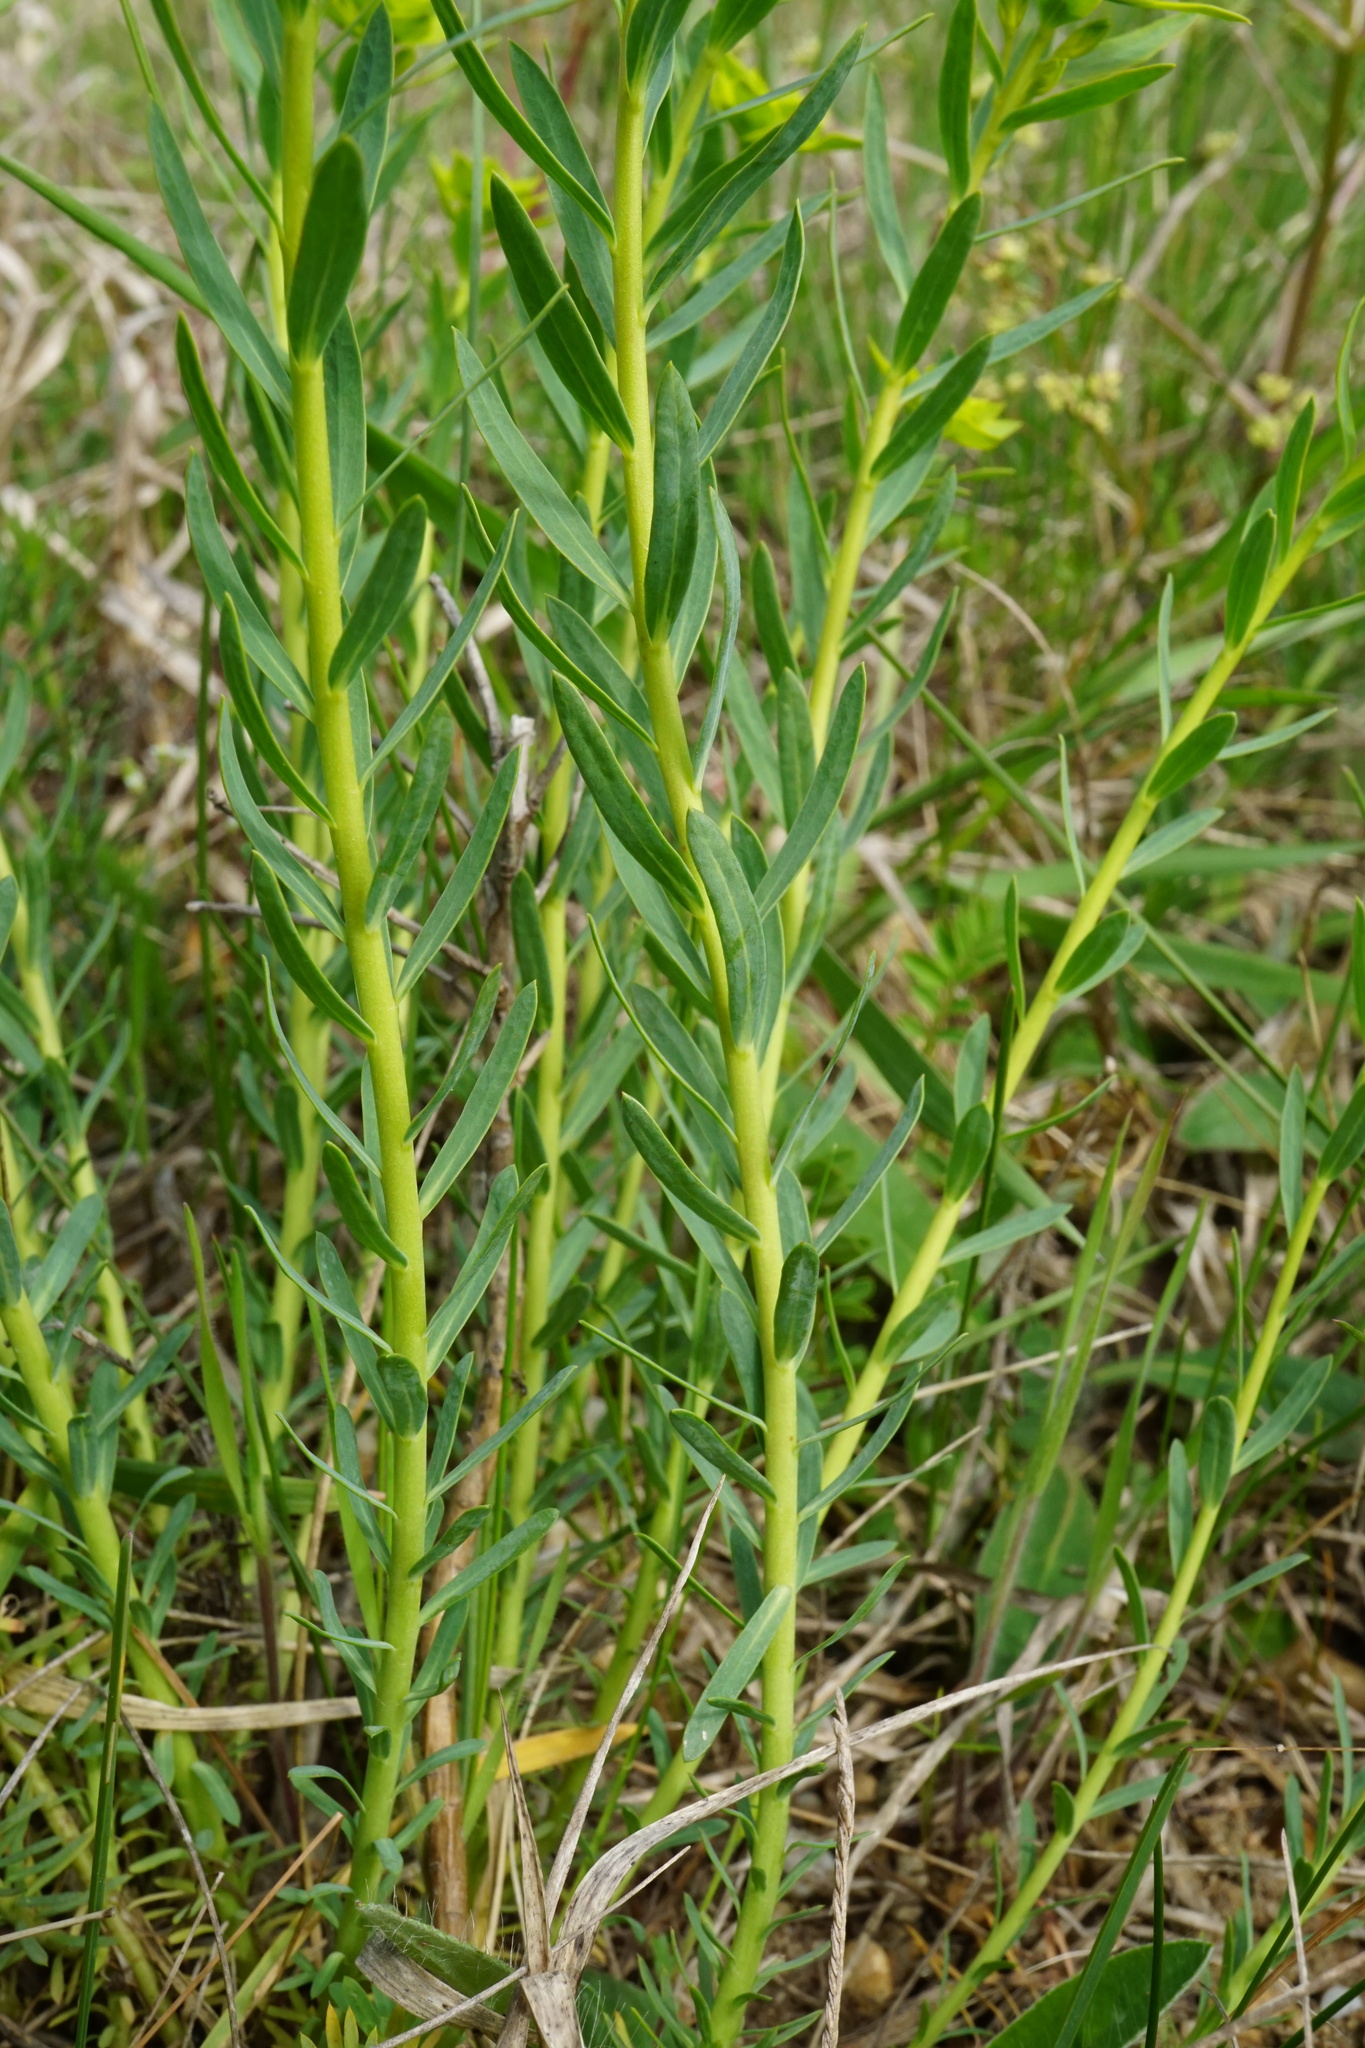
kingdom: Plantae
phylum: Tracheophyta
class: Magnoliopsida
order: Malpighiales
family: Euphorbiaceae
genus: Euphorbia
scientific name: Euphorbia seguieriana
